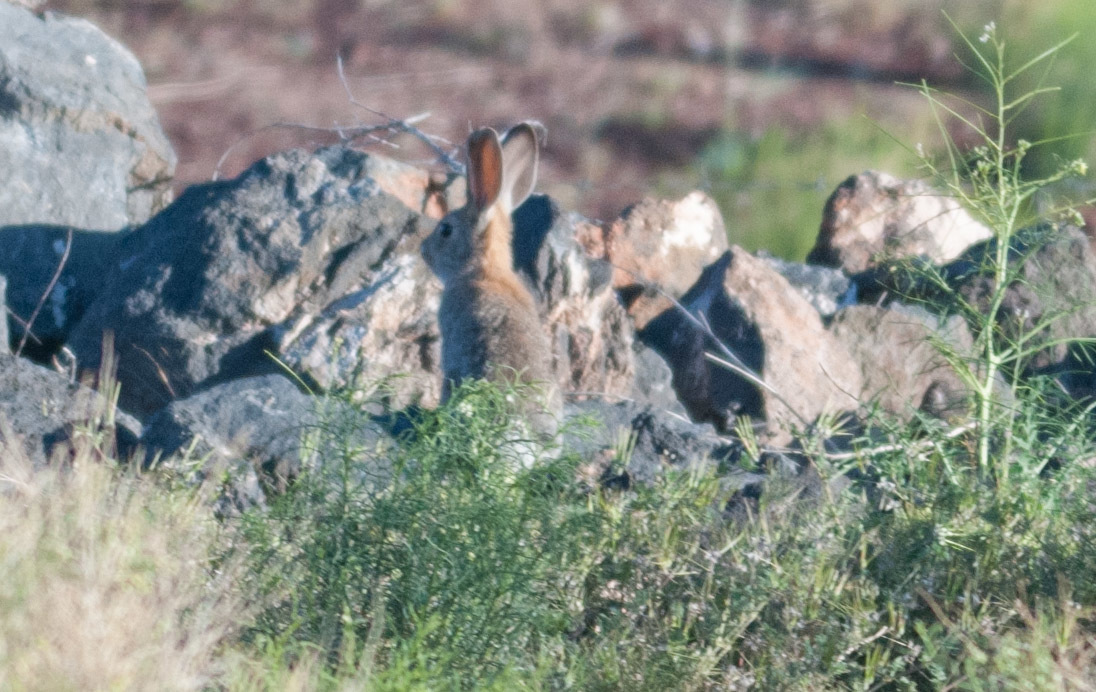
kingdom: Animalia
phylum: Chordata
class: Mammalia
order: Lagomorpha
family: Leporidae
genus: Sylvilagus
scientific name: Sylvilagus audubonii
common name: Desert cottontail
